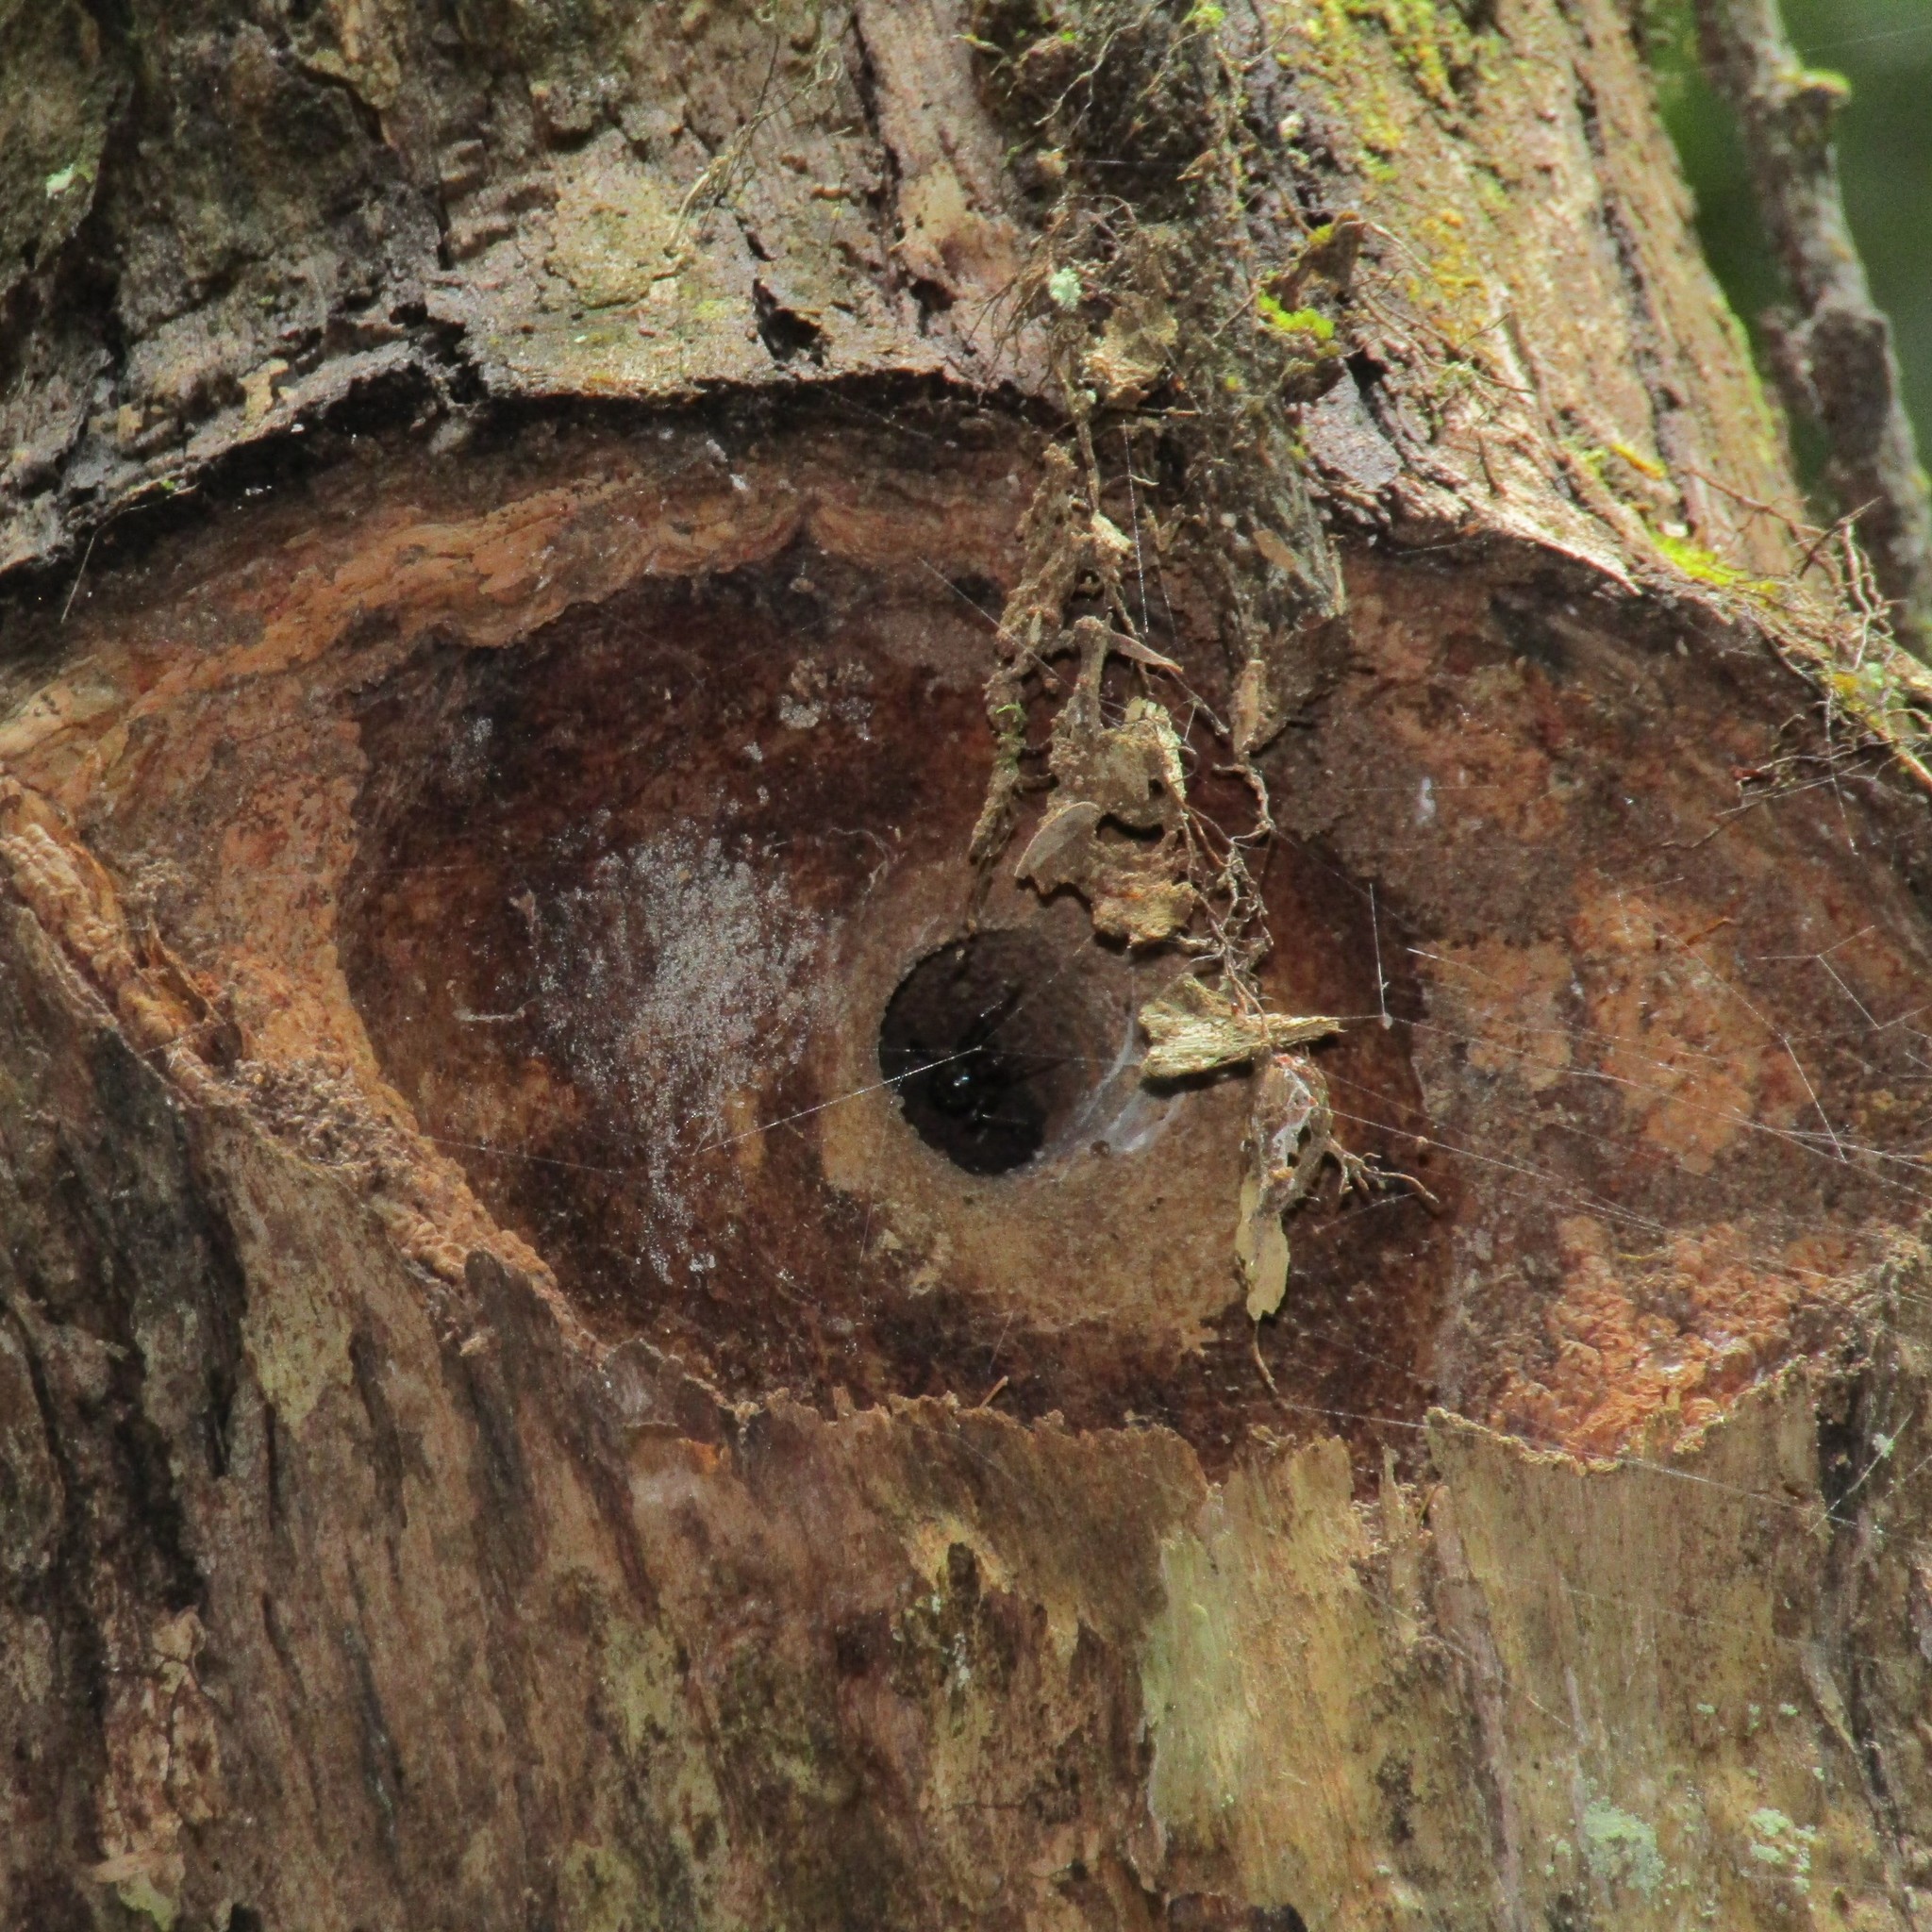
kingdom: Animalia
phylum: Arthropoda
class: Insecta
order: Lepidoptera
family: Hepialidae
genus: Aenetus
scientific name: Aenetus virescens
